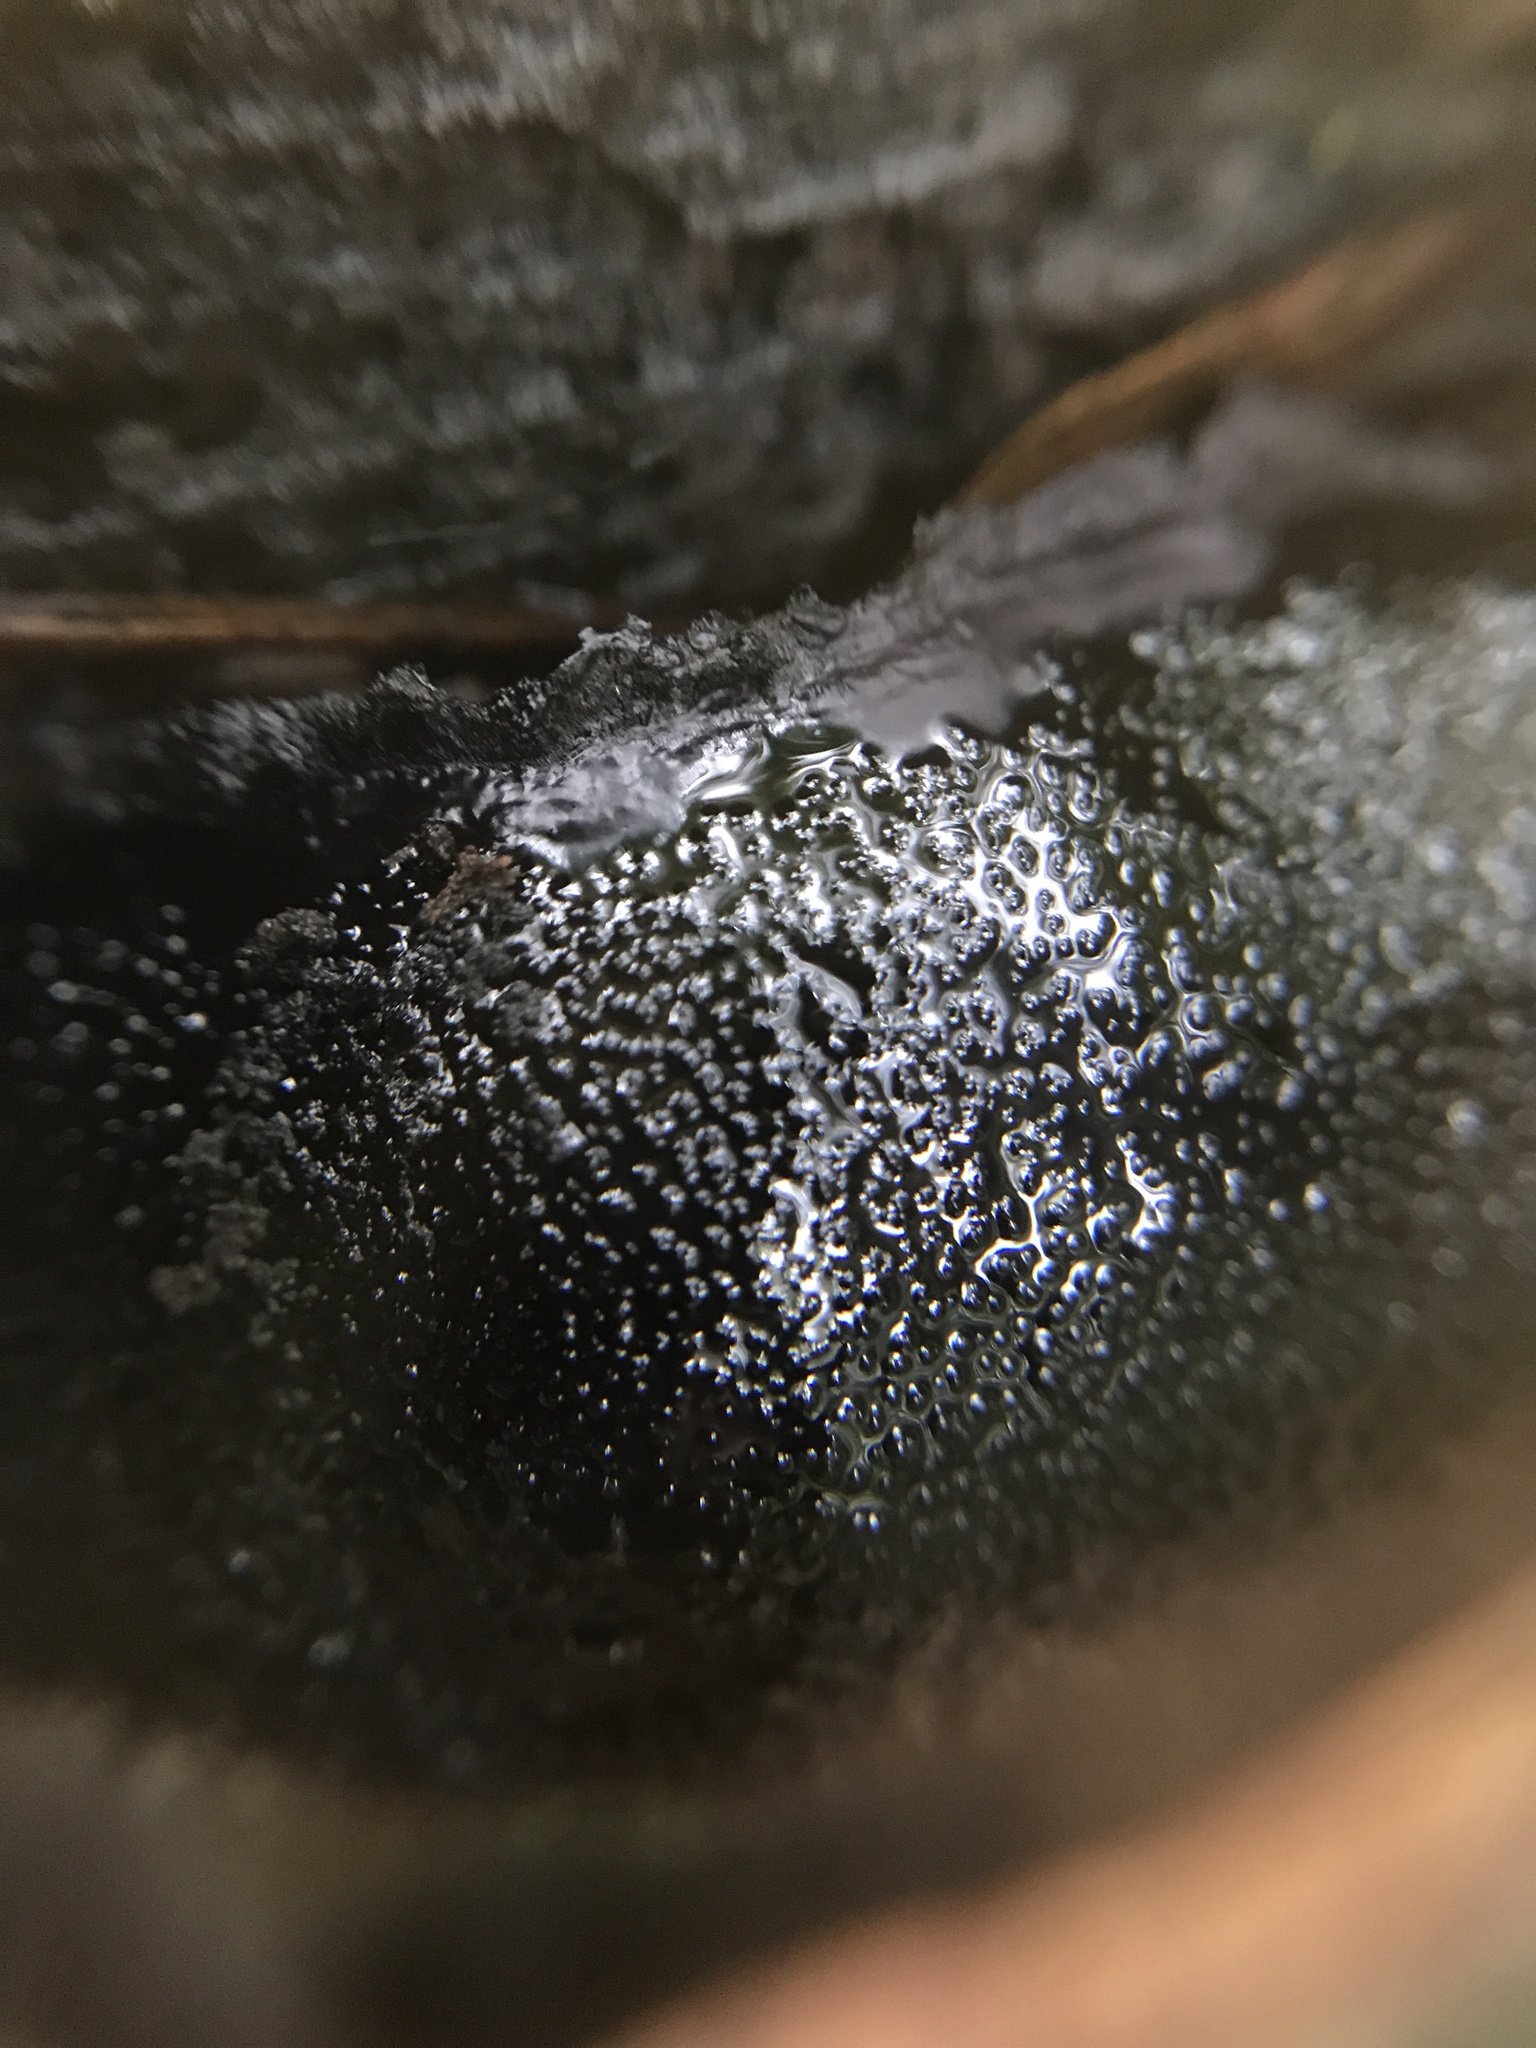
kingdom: Fungi
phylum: Ascomycota
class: Sordariomycetes
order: Boliniales
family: Boliniaceae
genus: Camarops
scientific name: Camarops petersii
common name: Dog's nose fungus
